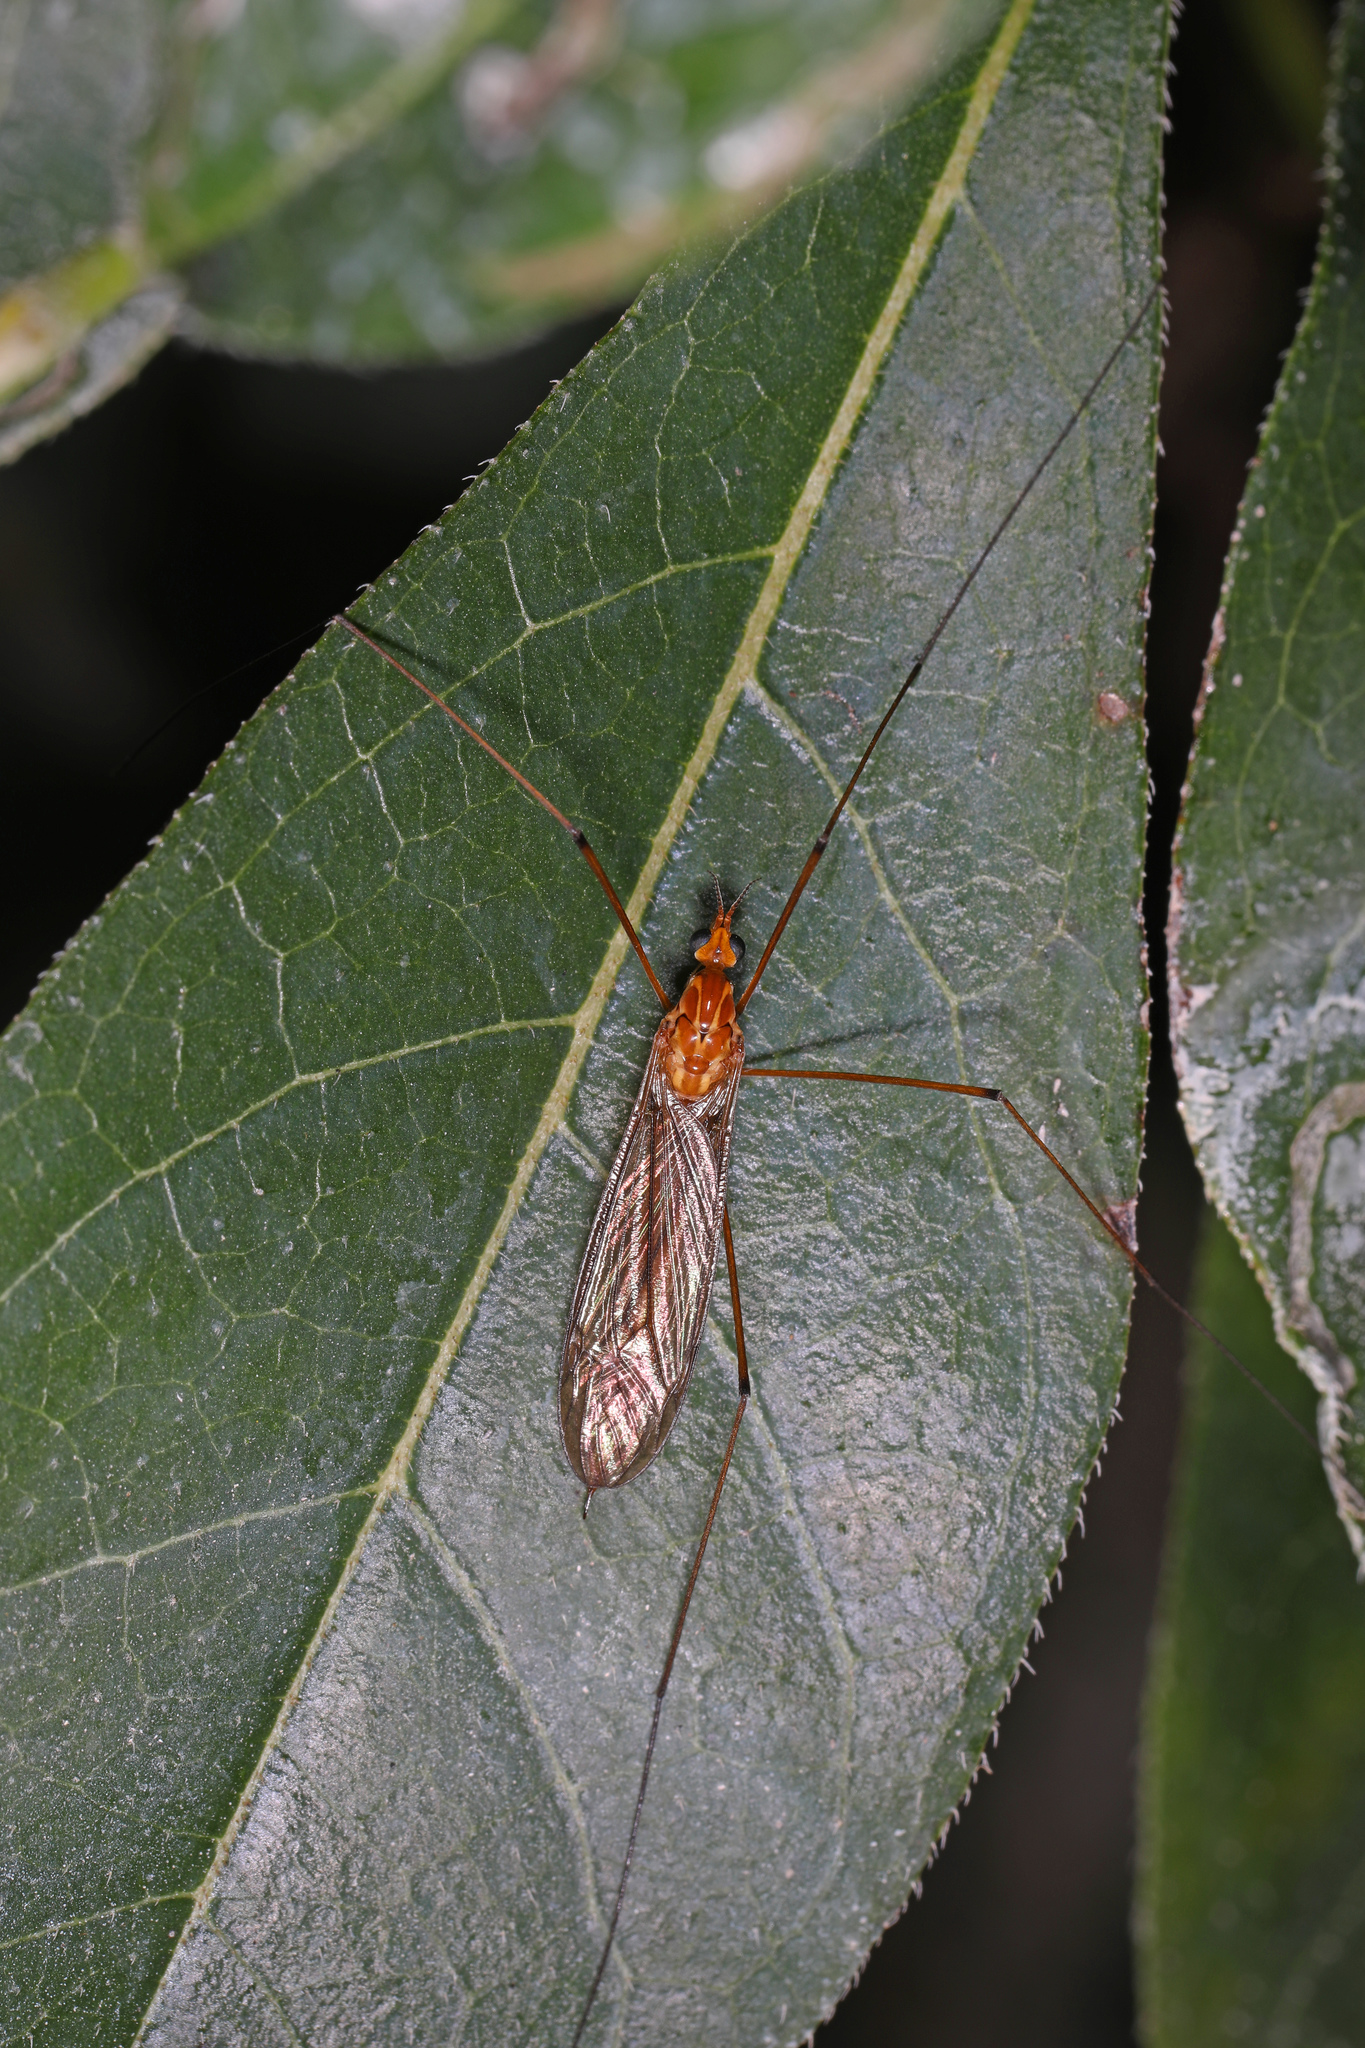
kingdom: Animalia
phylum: Arthropoda
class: Insecta
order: Diptera
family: Tipulidae
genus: Nephrotoma
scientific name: Nephrotoma
